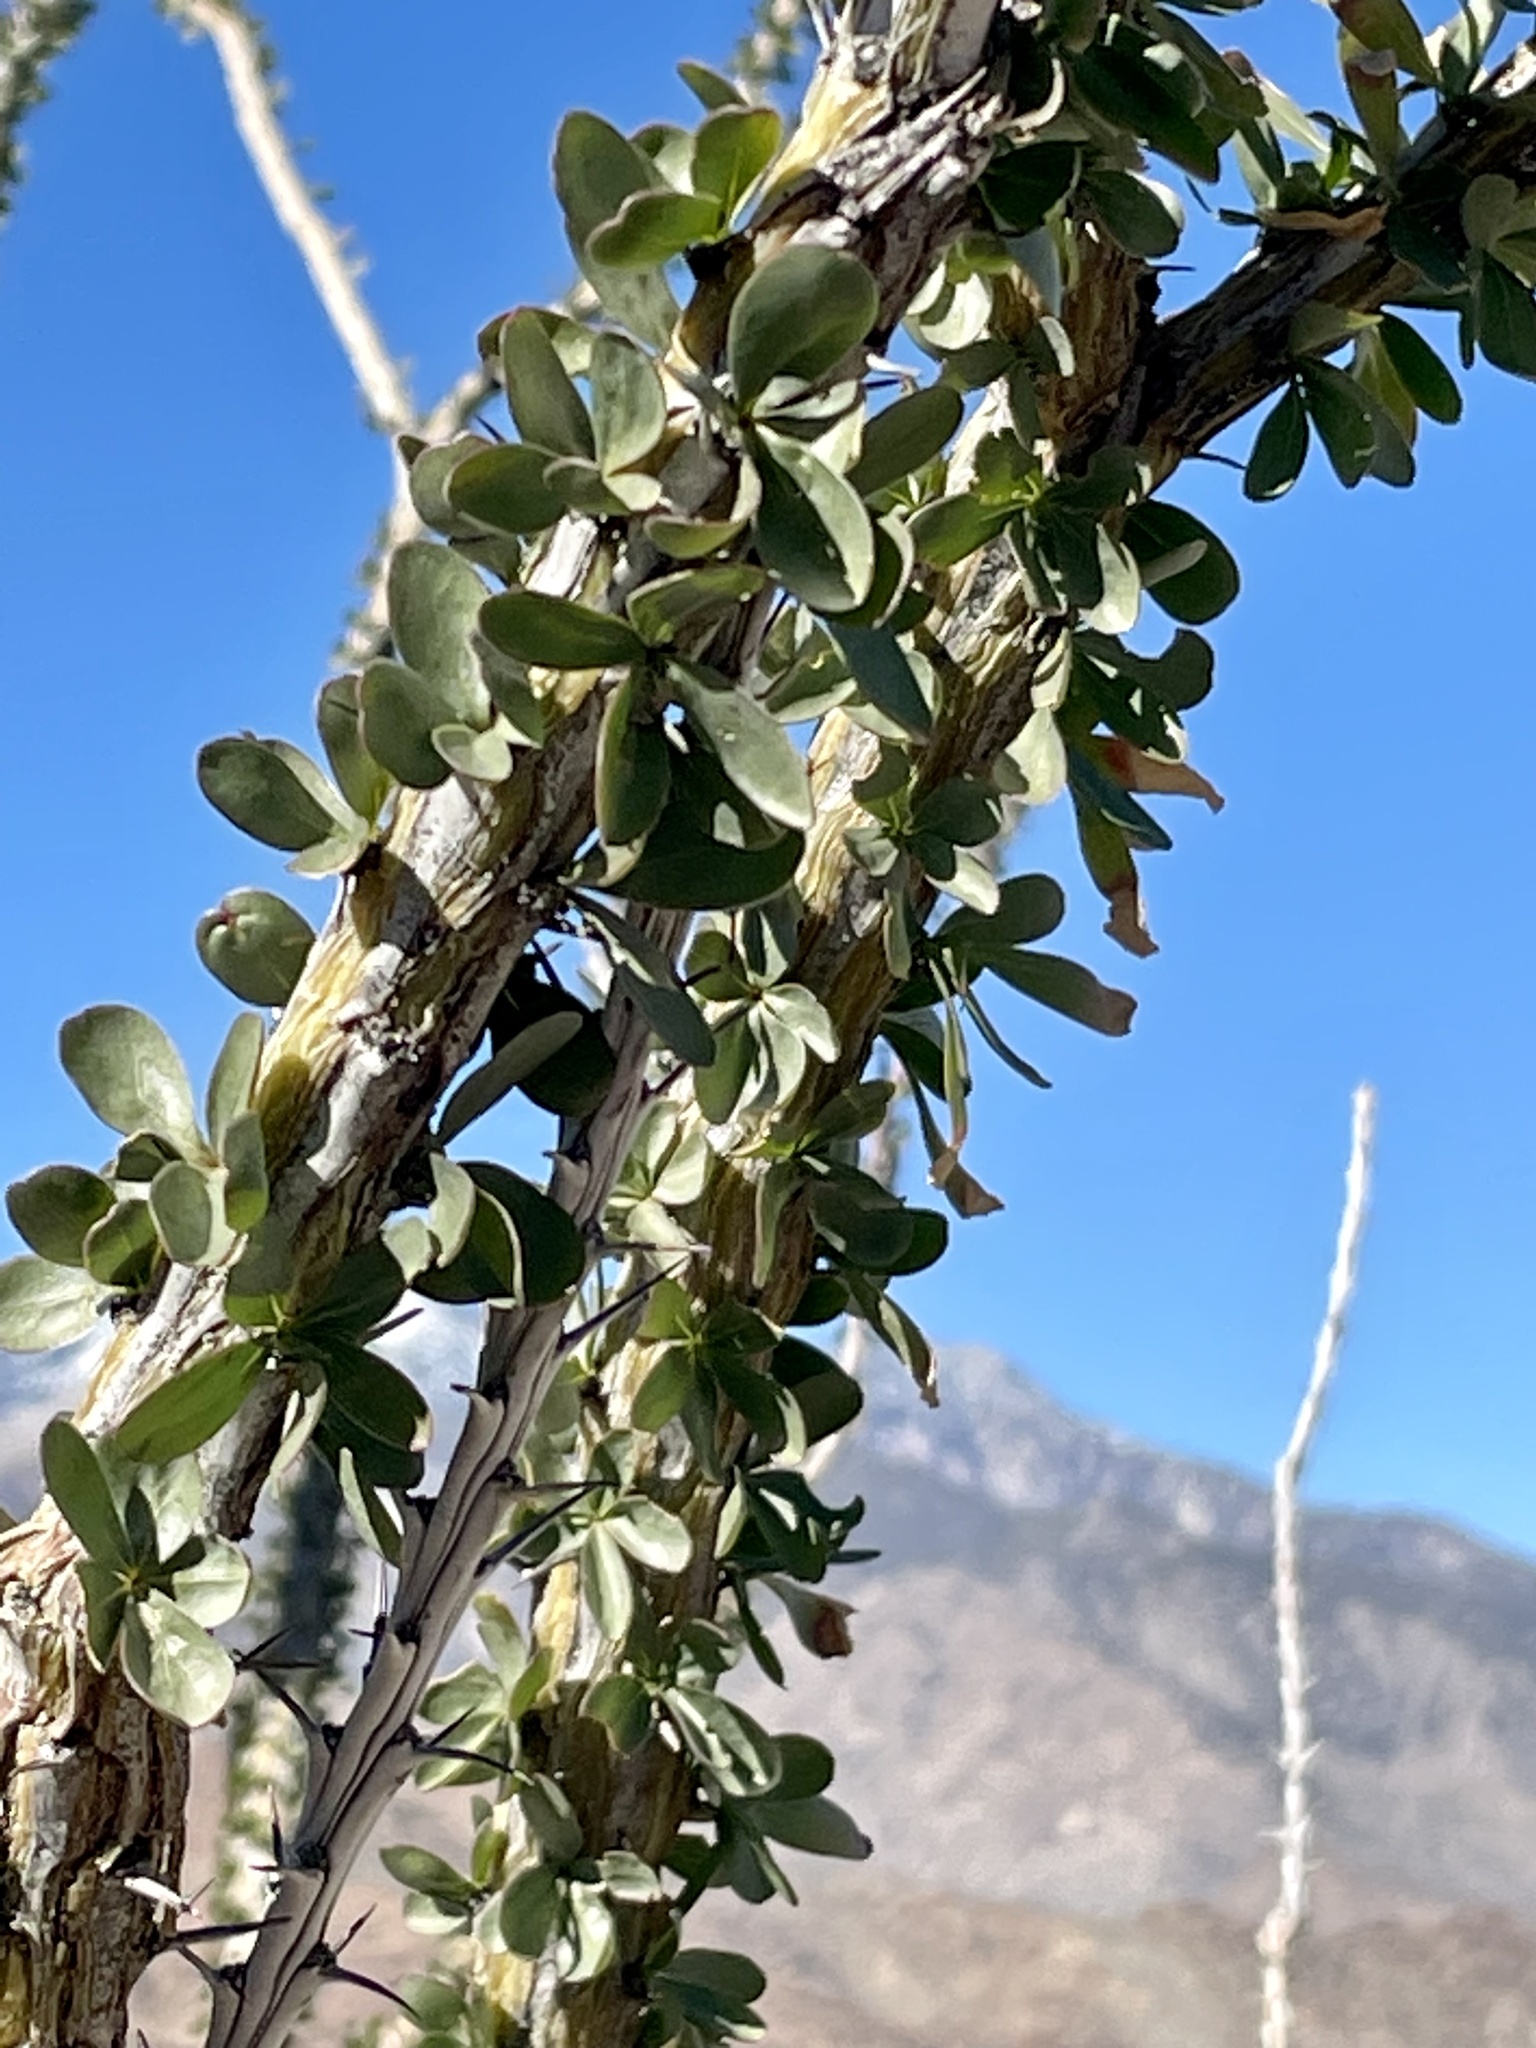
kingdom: Plantae
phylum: Tracheophyta
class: Magnoliopsida
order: Ericales
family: Fouquieriaceae
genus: Fouquieria
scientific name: Fouquieria splendens
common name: Vine-cactus
